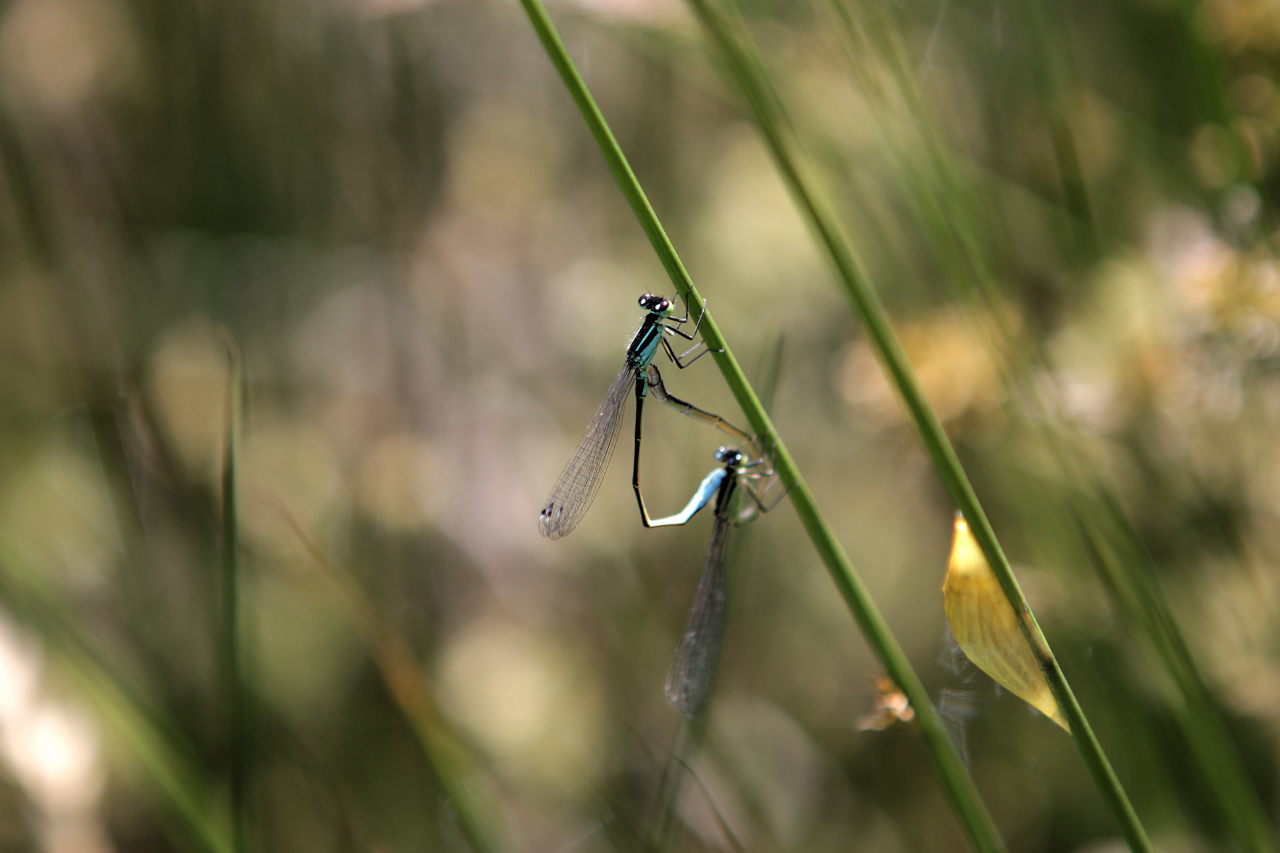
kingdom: Animalia
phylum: Arthropoda
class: Insecta
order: Odonata
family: Coenagrionidae
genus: Ischnura
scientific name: Ischnura elegans
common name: Blue-tailed damselfly
